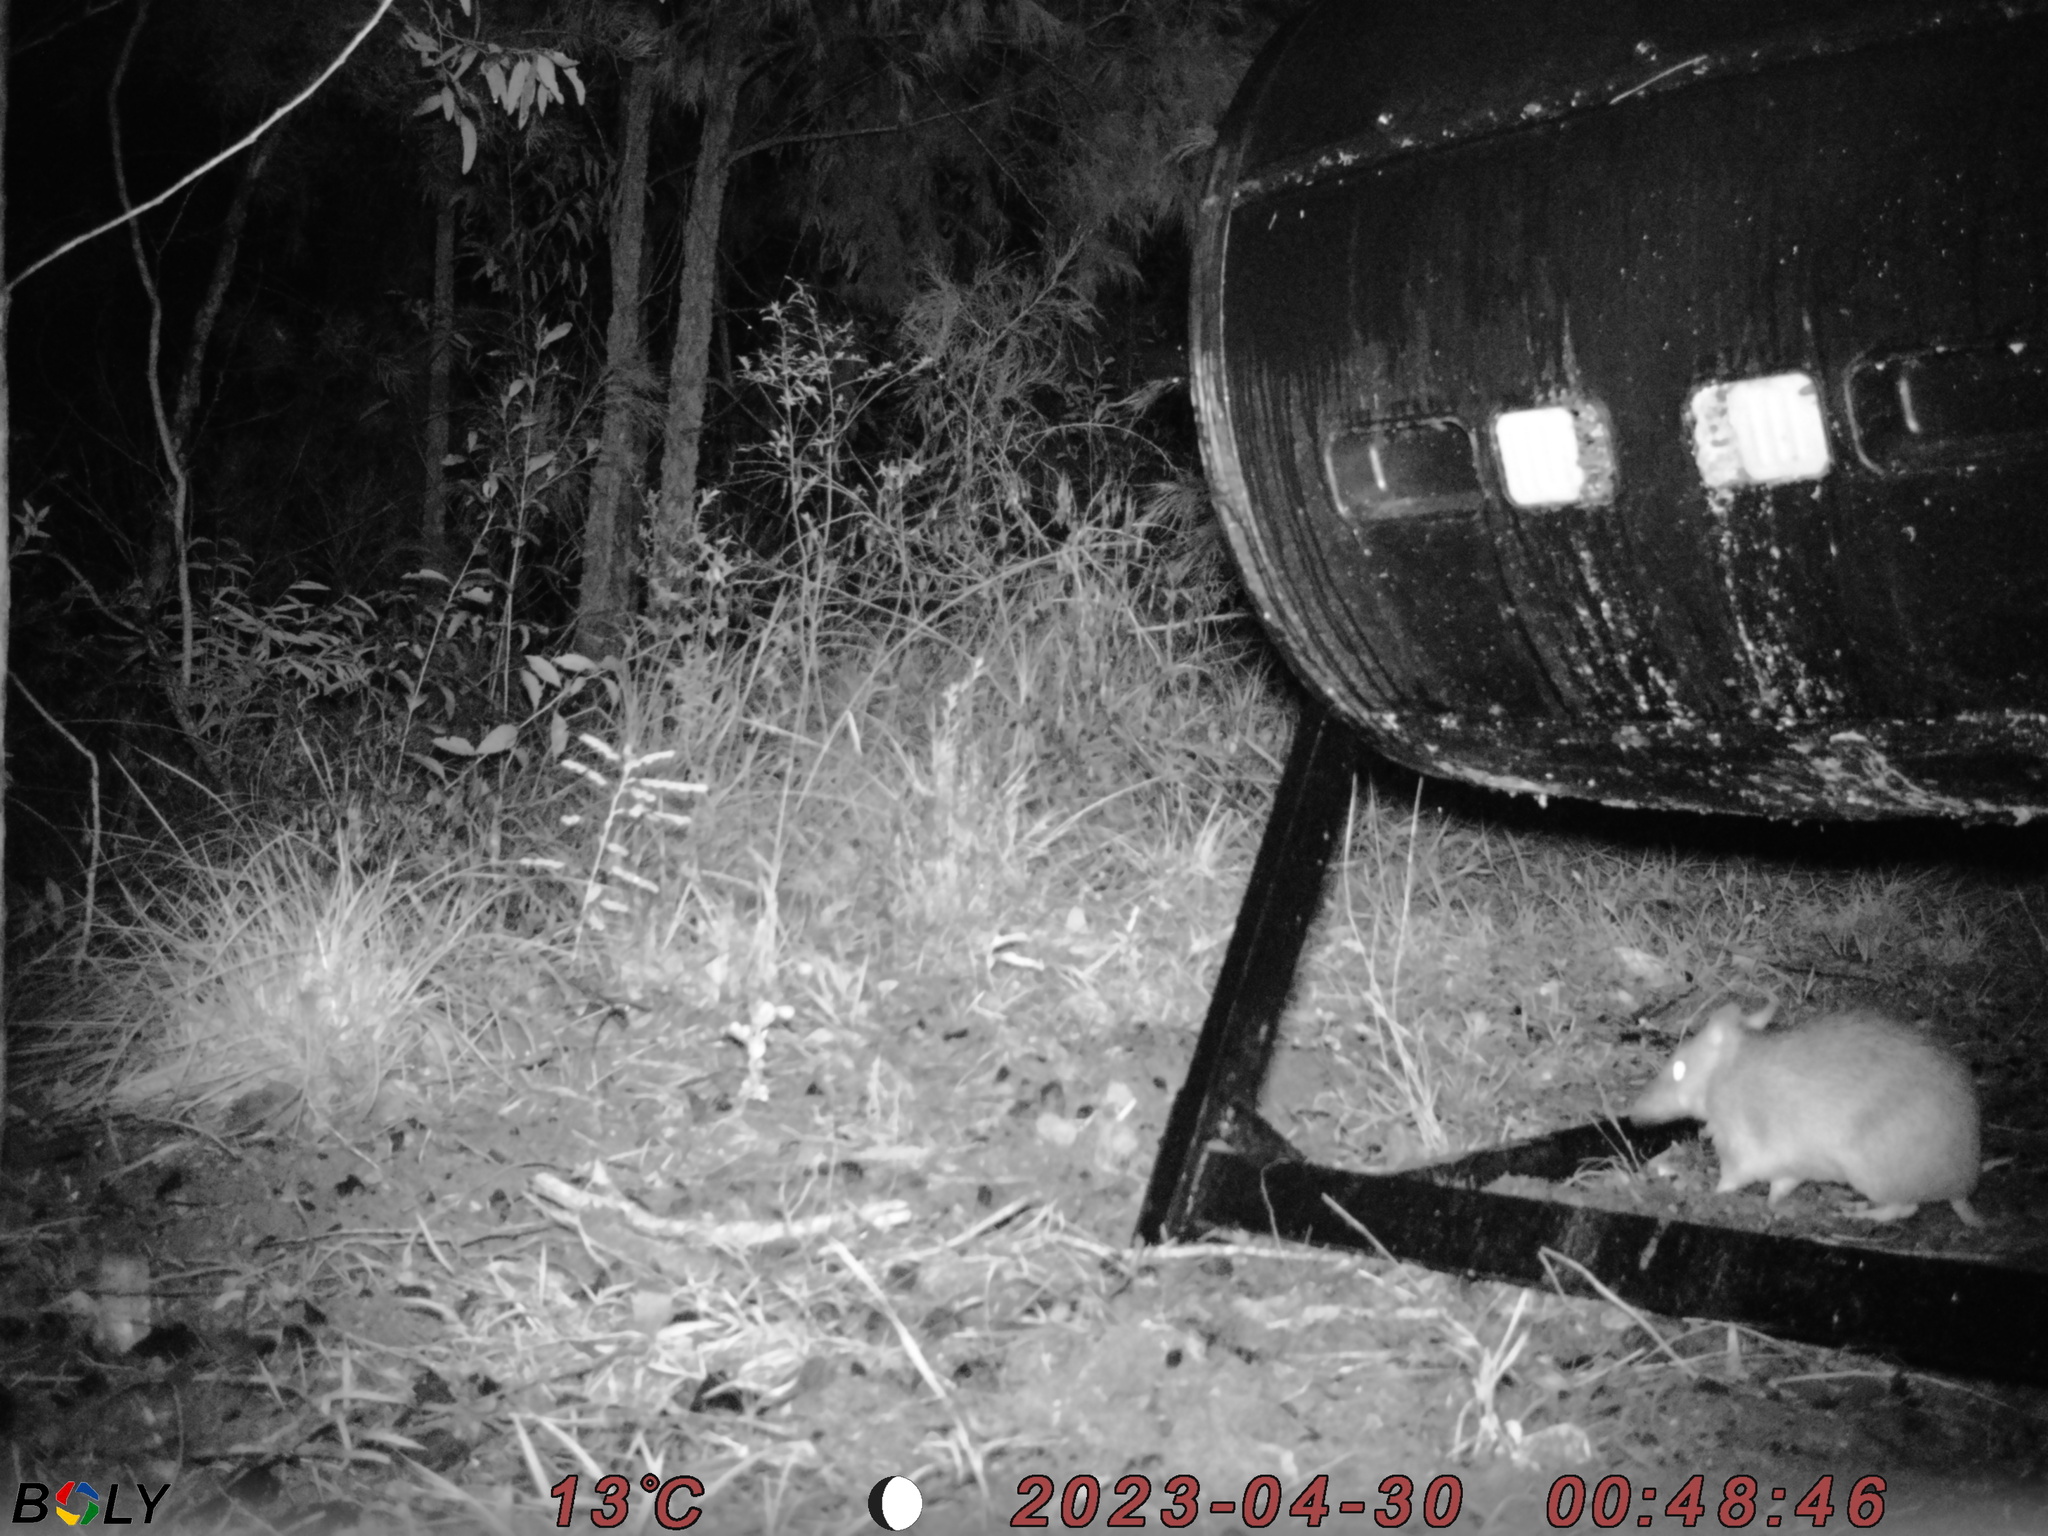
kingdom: Animalia
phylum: Chordata
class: Mammalia
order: Peramelemorphia
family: Peramelidae
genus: Perameles
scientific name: Perameles nasuta
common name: Long-nosed bandicoot
